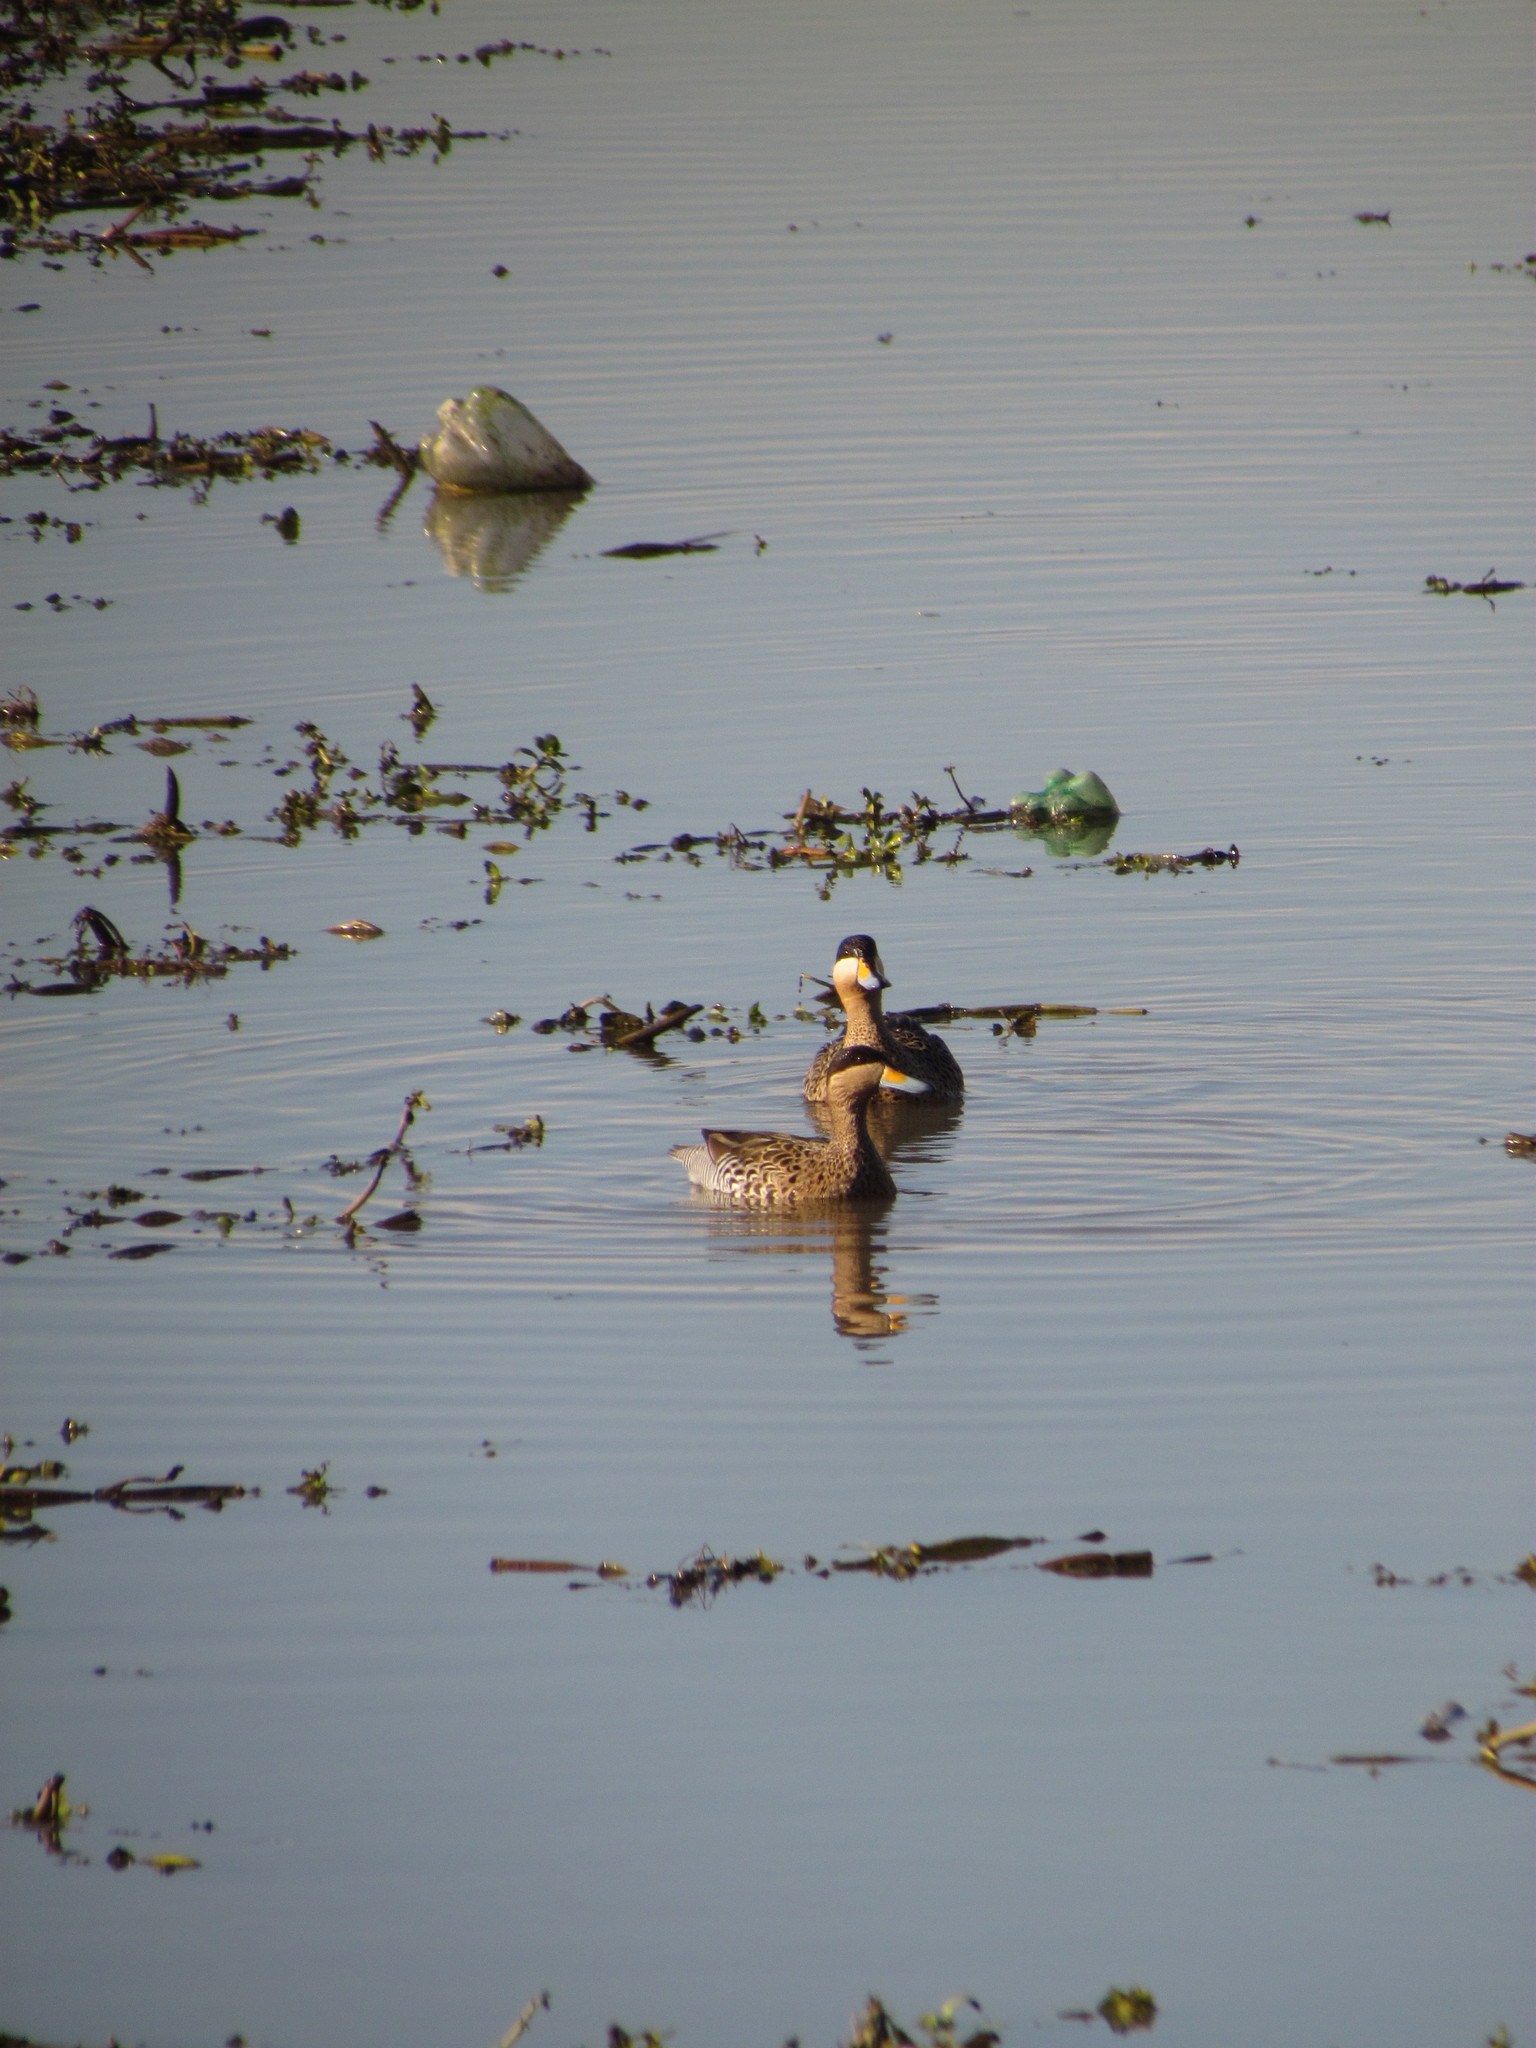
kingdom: Animalia
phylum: Chordata
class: Aves
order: Anseriformes
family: Anatidae
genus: Spatula
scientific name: Spatula versicolor
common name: Silver teal
